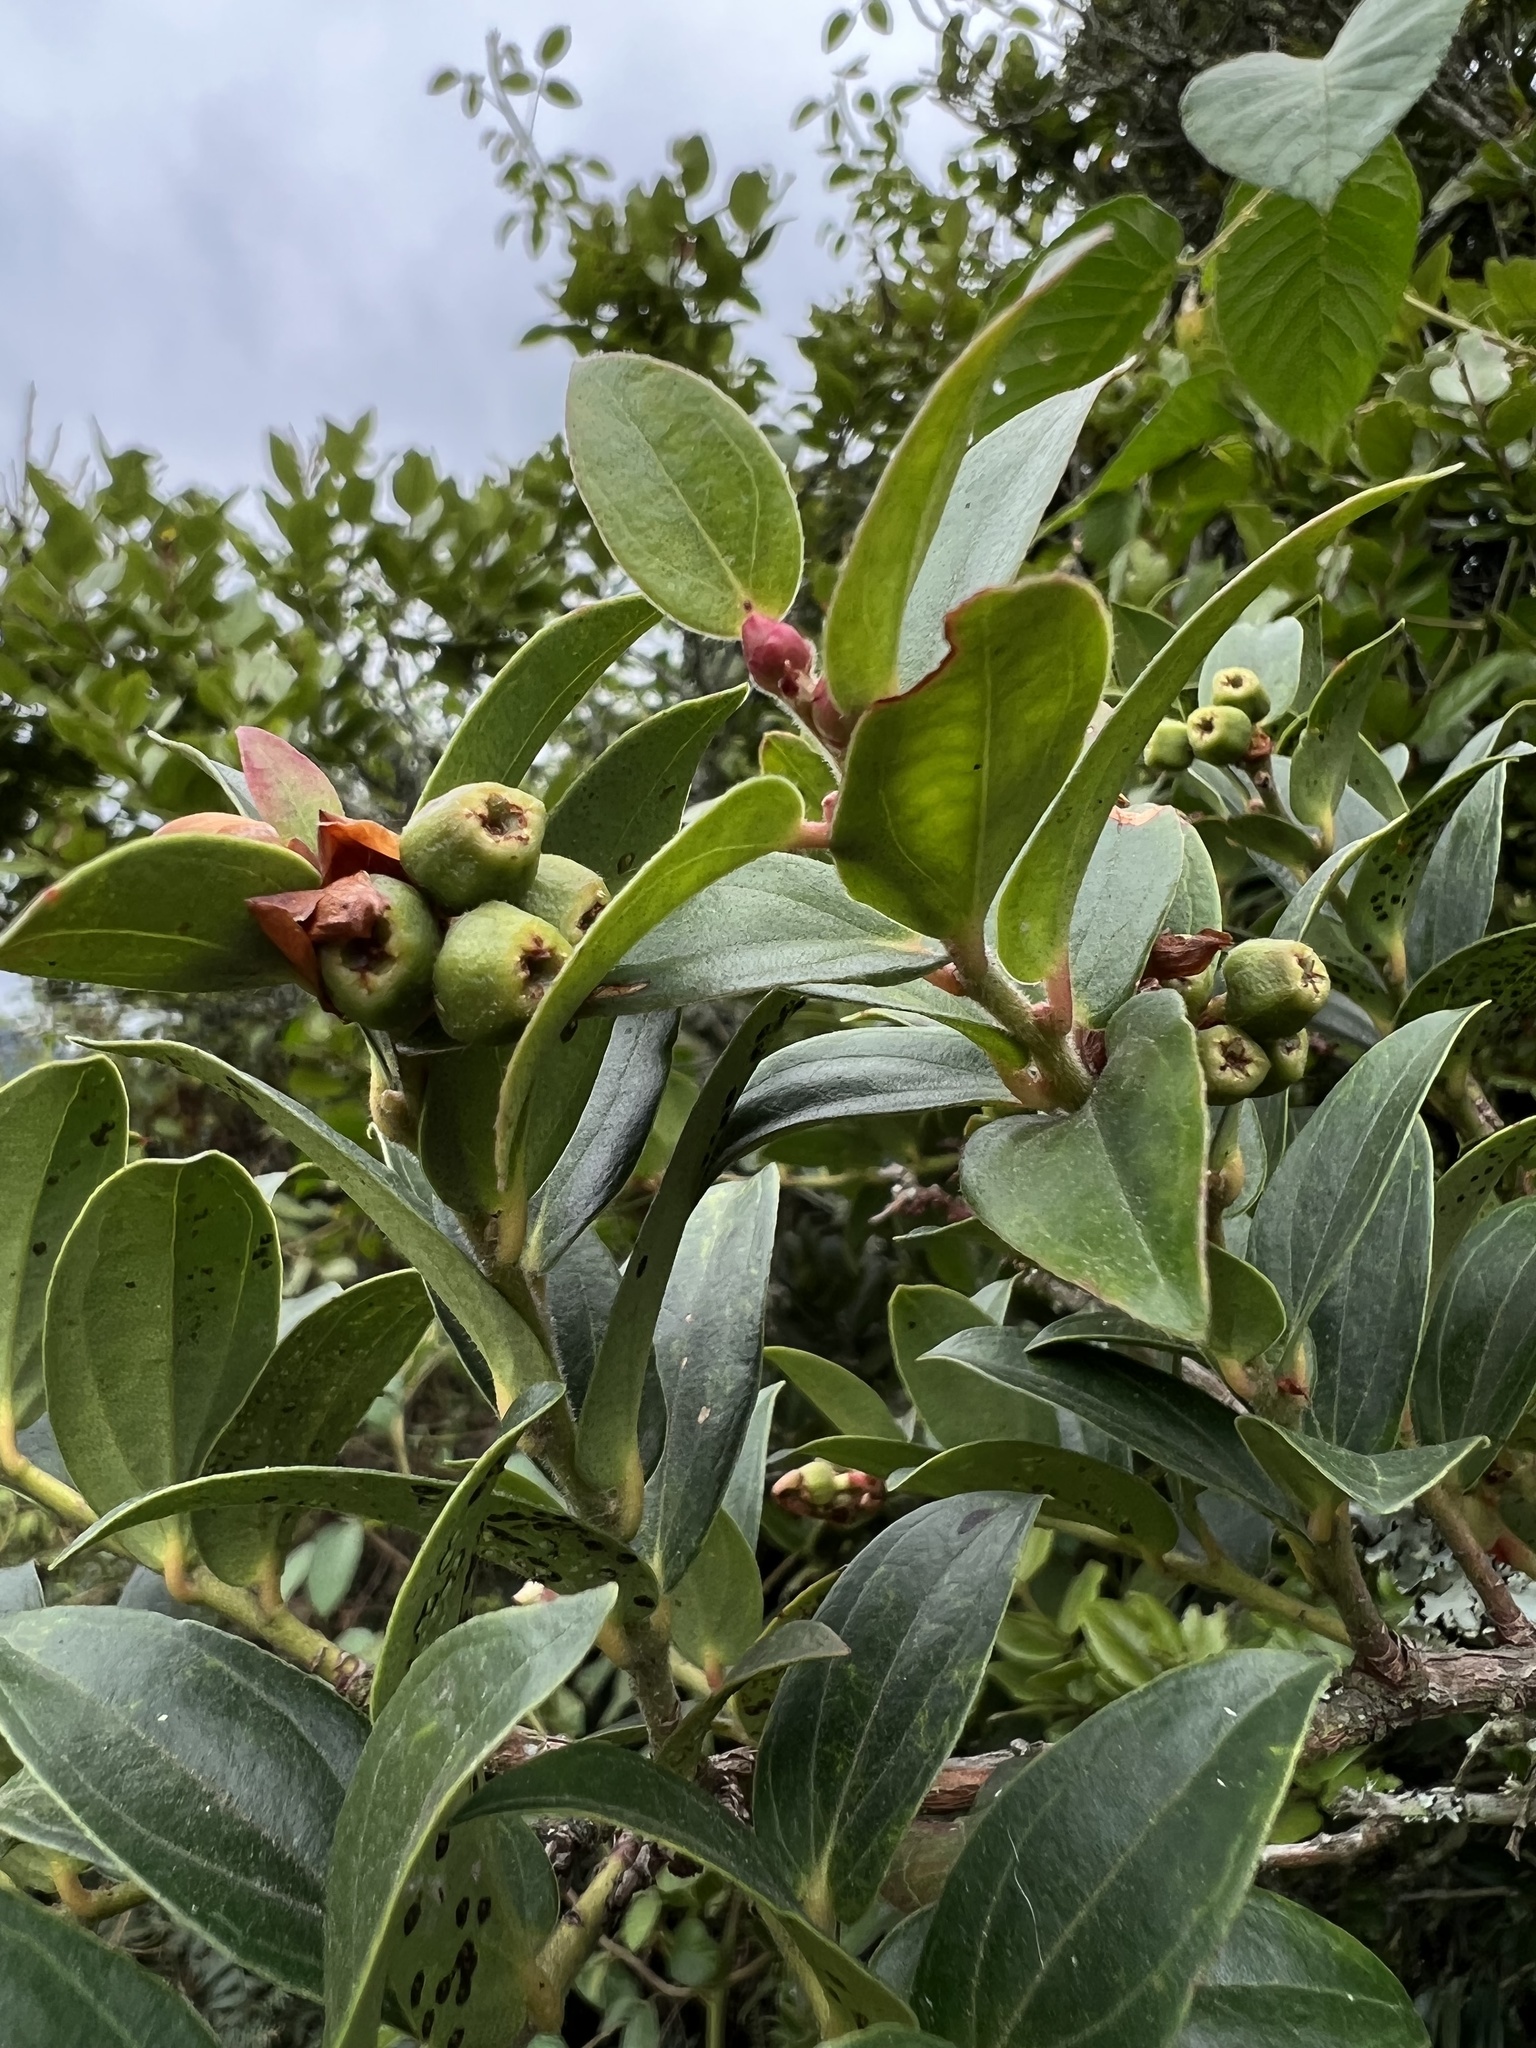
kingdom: Plantae
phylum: Tracheophyta
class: Magnoliopsida
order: Ericales
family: Ericaceae
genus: Cavendishia
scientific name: Cavendishia bracteata
